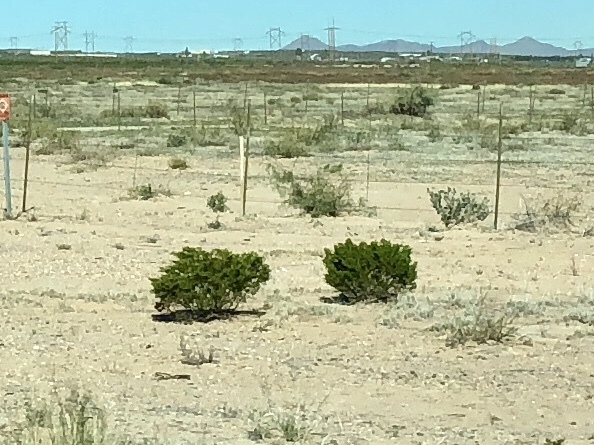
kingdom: Plantae
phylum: Tracheophyta
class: Magnoliopsida
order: Zygophyllales
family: Zygophyllaceae
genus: Larrea
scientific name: Larrea tridentata
